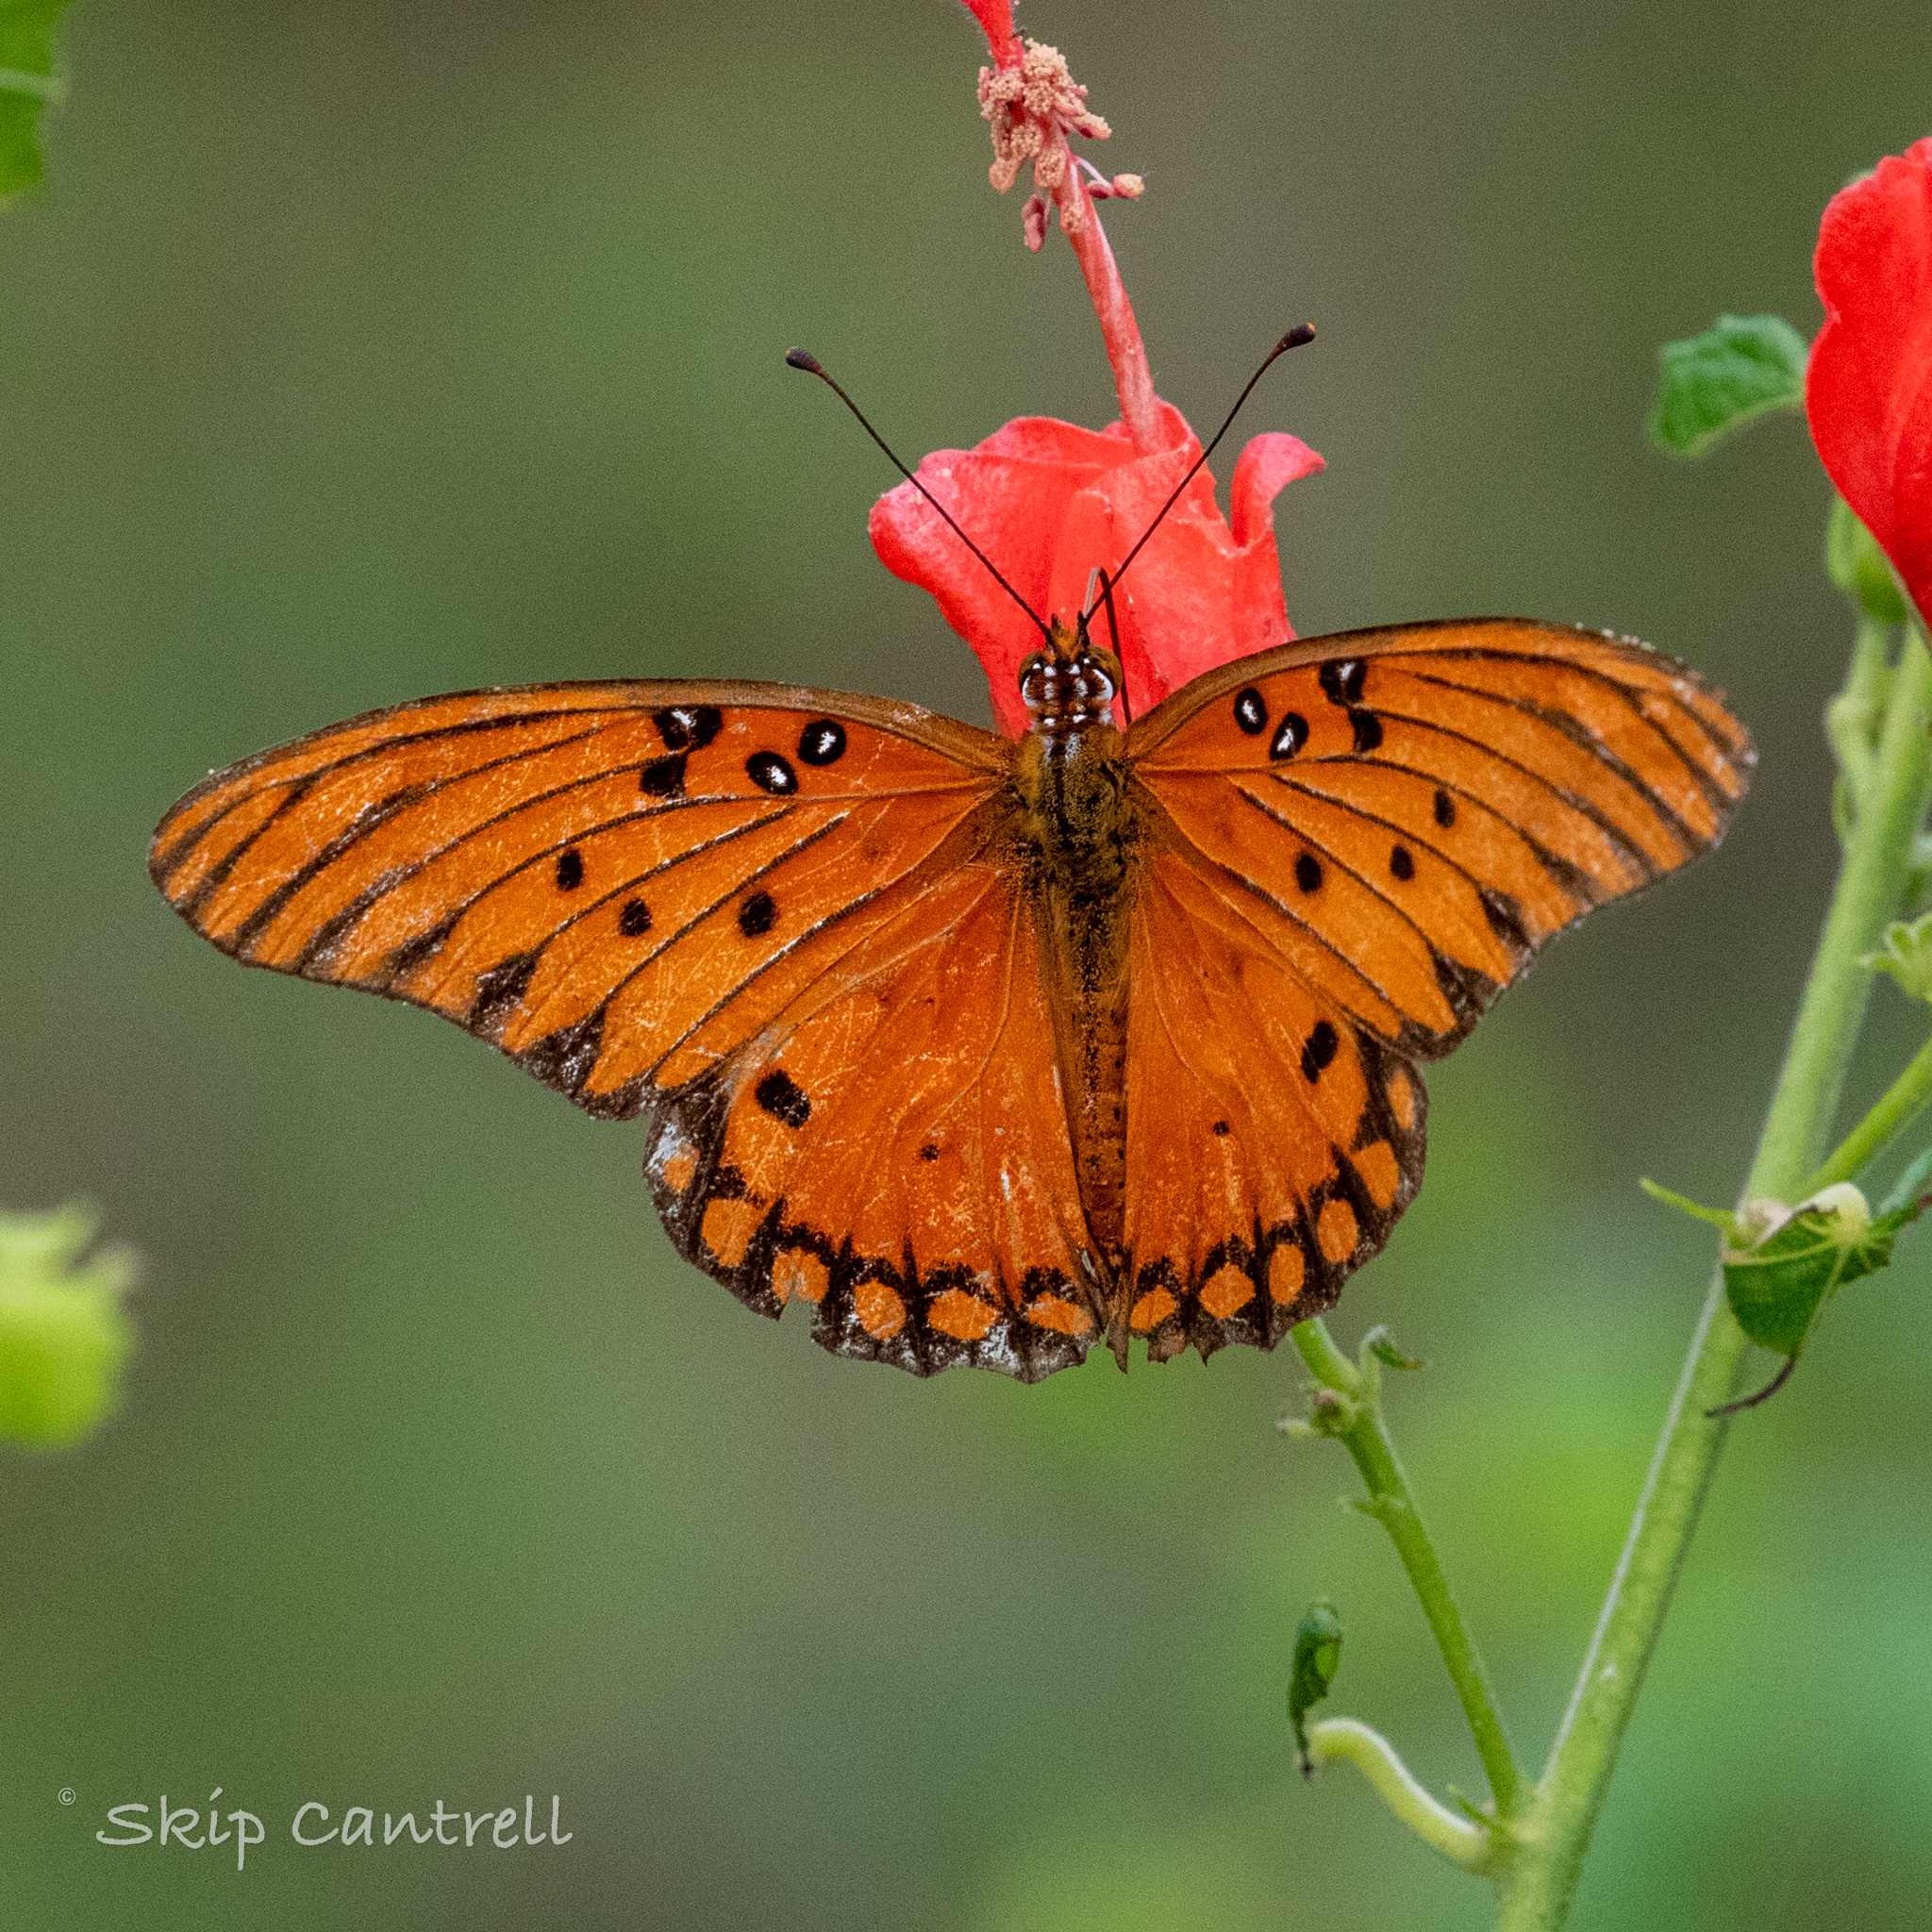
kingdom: Animalia
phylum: Arthropoda
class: Insecta
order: Lepidoptera
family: Nymphalidae
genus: Dione
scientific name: Dione vanillae
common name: Gulf fritillary
